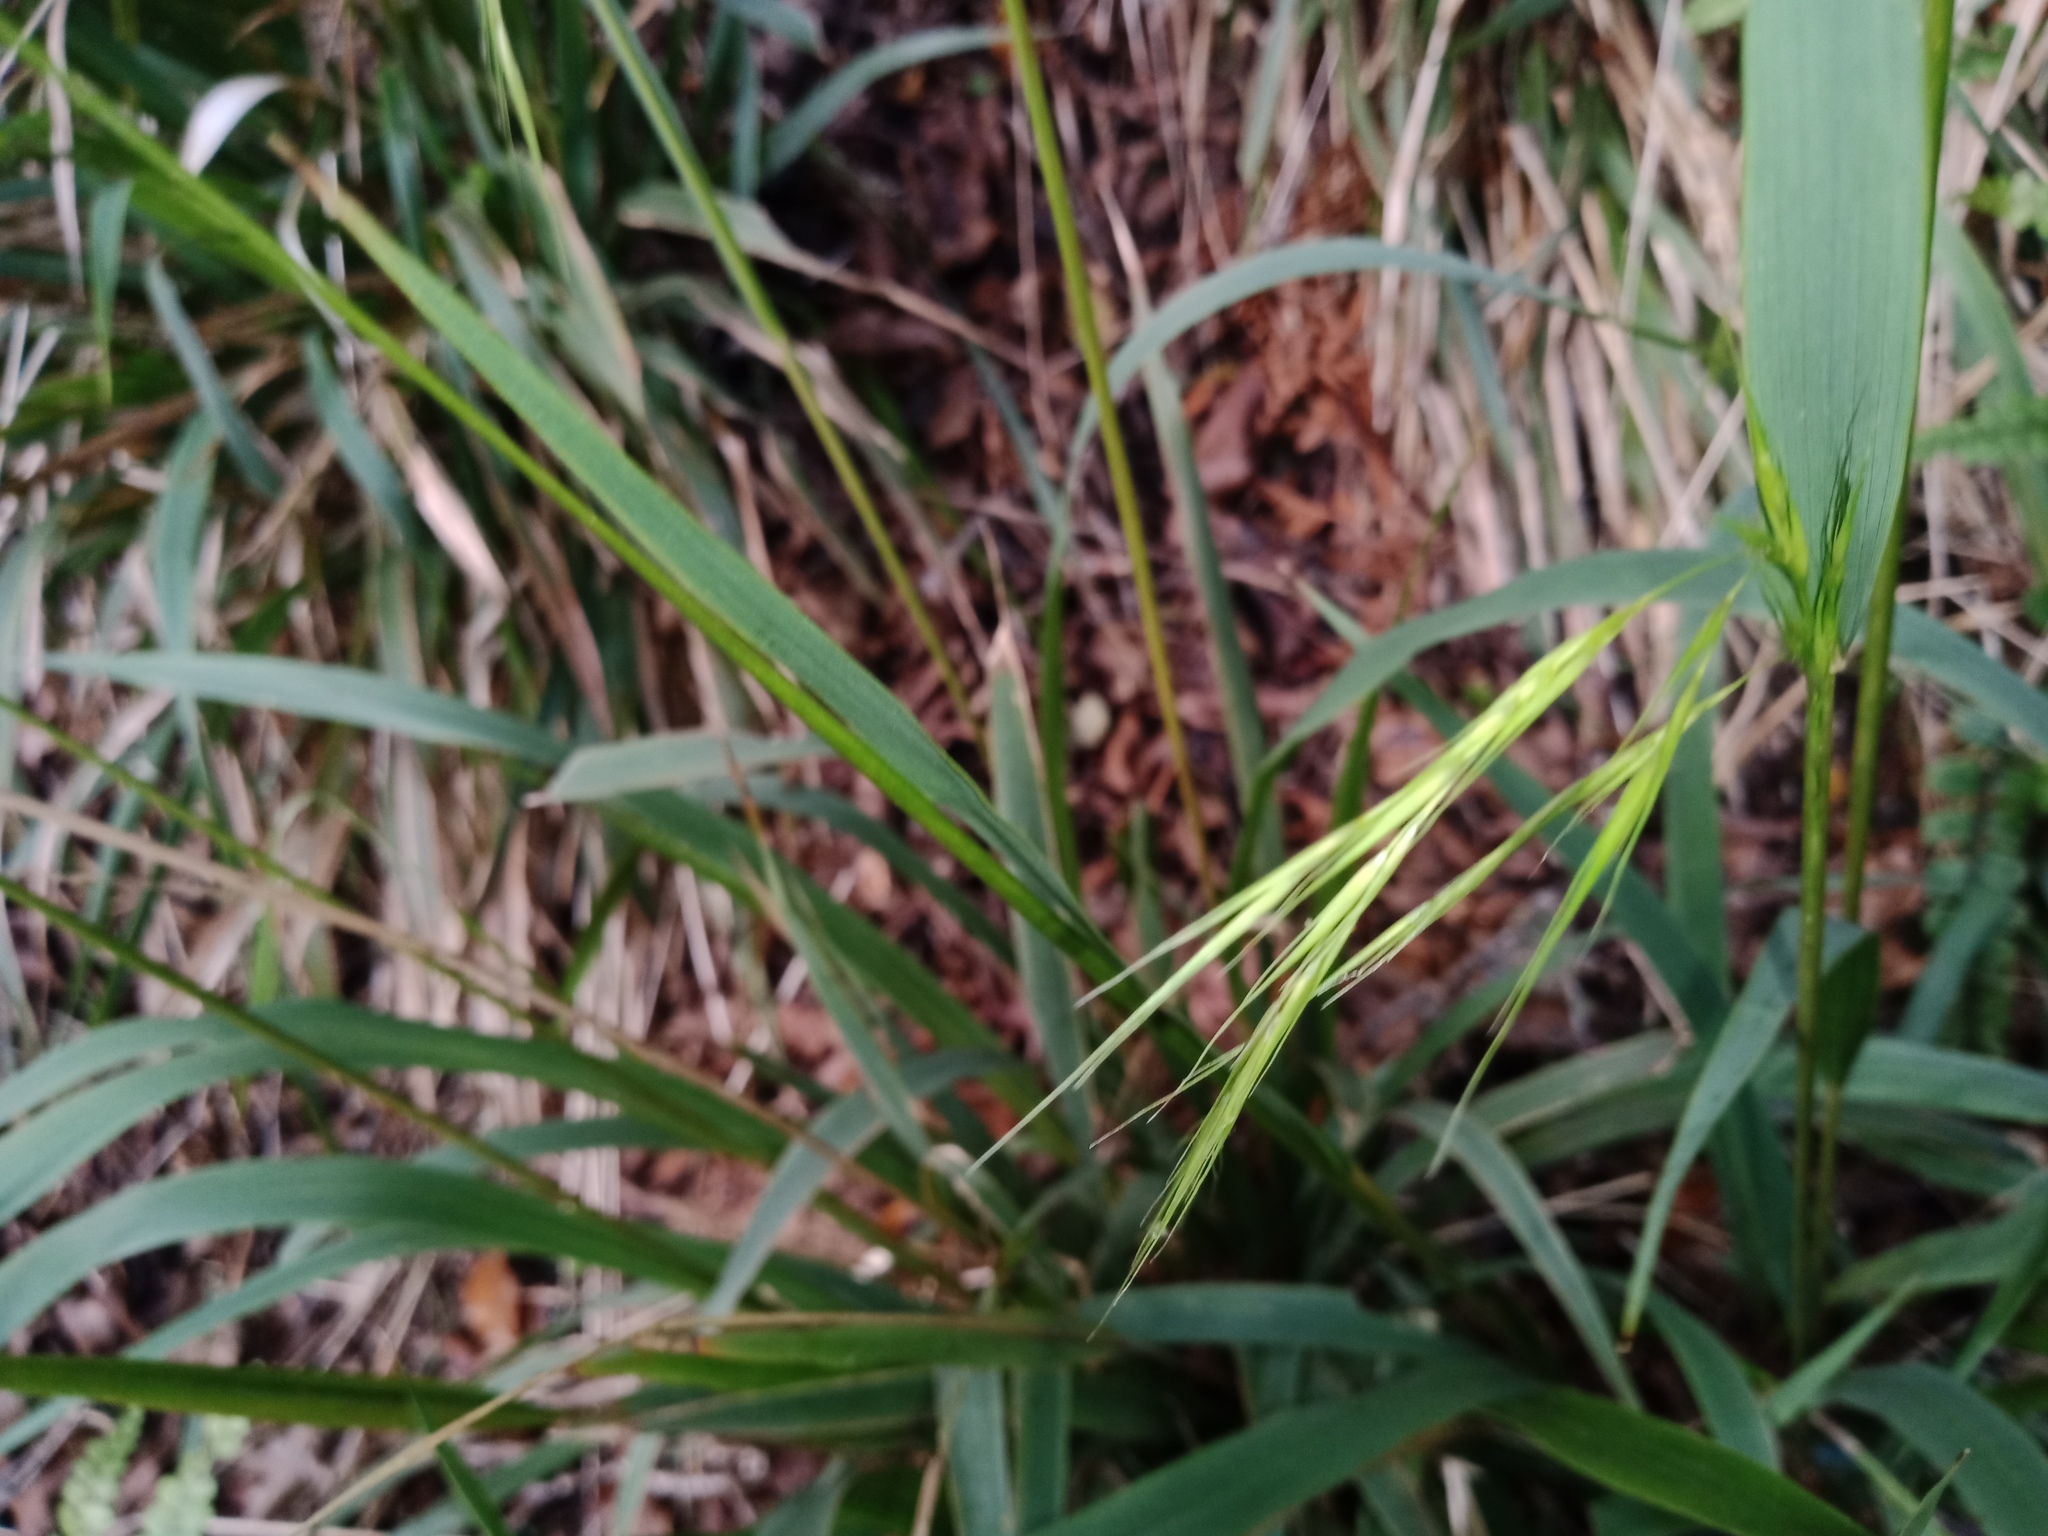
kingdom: Plantae
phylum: Tracheophyta
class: Liliopsida
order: Poales
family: Poaceae
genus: Ehrharta
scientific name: Ehrharta diplax
